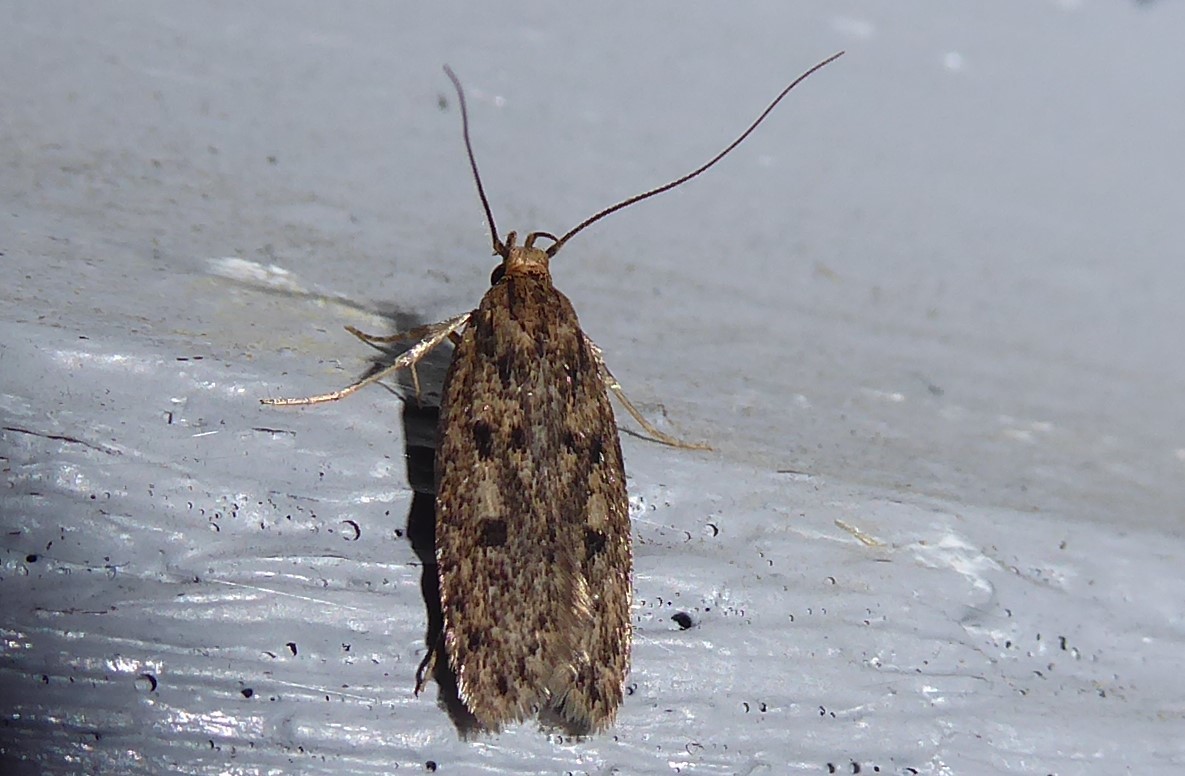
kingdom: Animalia
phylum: Arthropoda
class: Insecta
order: Lepidoptera
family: Oecophoridae
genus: Hofmannophila
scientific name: Hofmannophila pseudospretella
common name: Brown house moth
